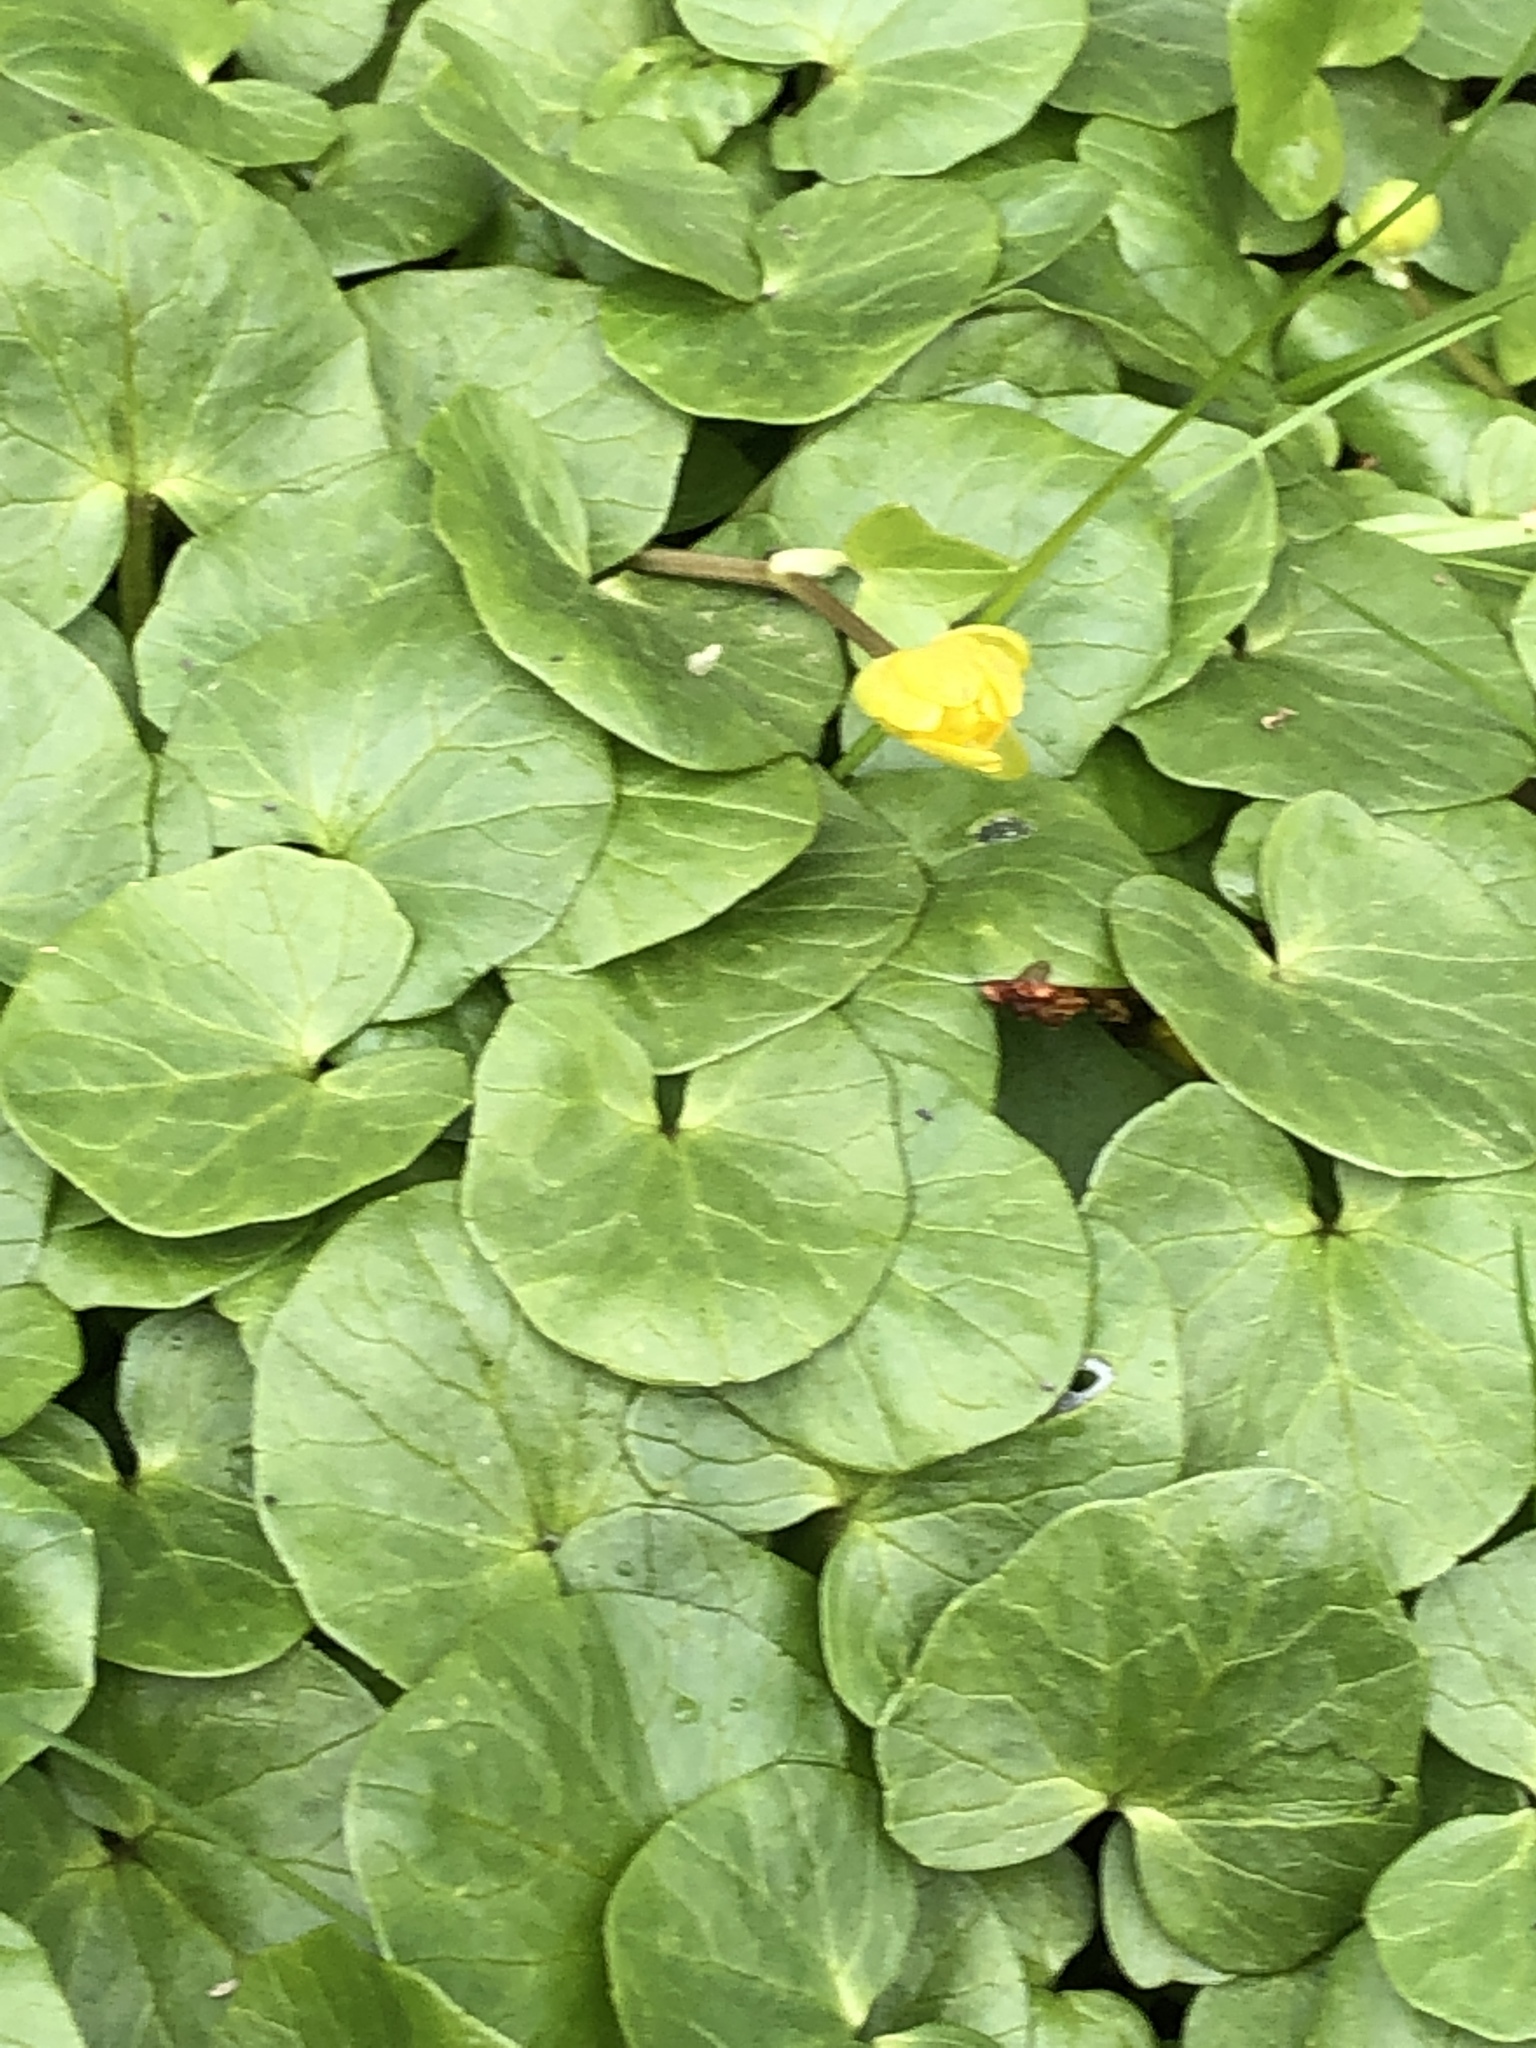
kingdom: Plantae
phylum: Tracheophyta
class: Magnoliopsida
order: Ranunculales
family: Ranunculaceae
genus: Ficaria
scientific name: Ficaria verna
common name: Lesser celandine
